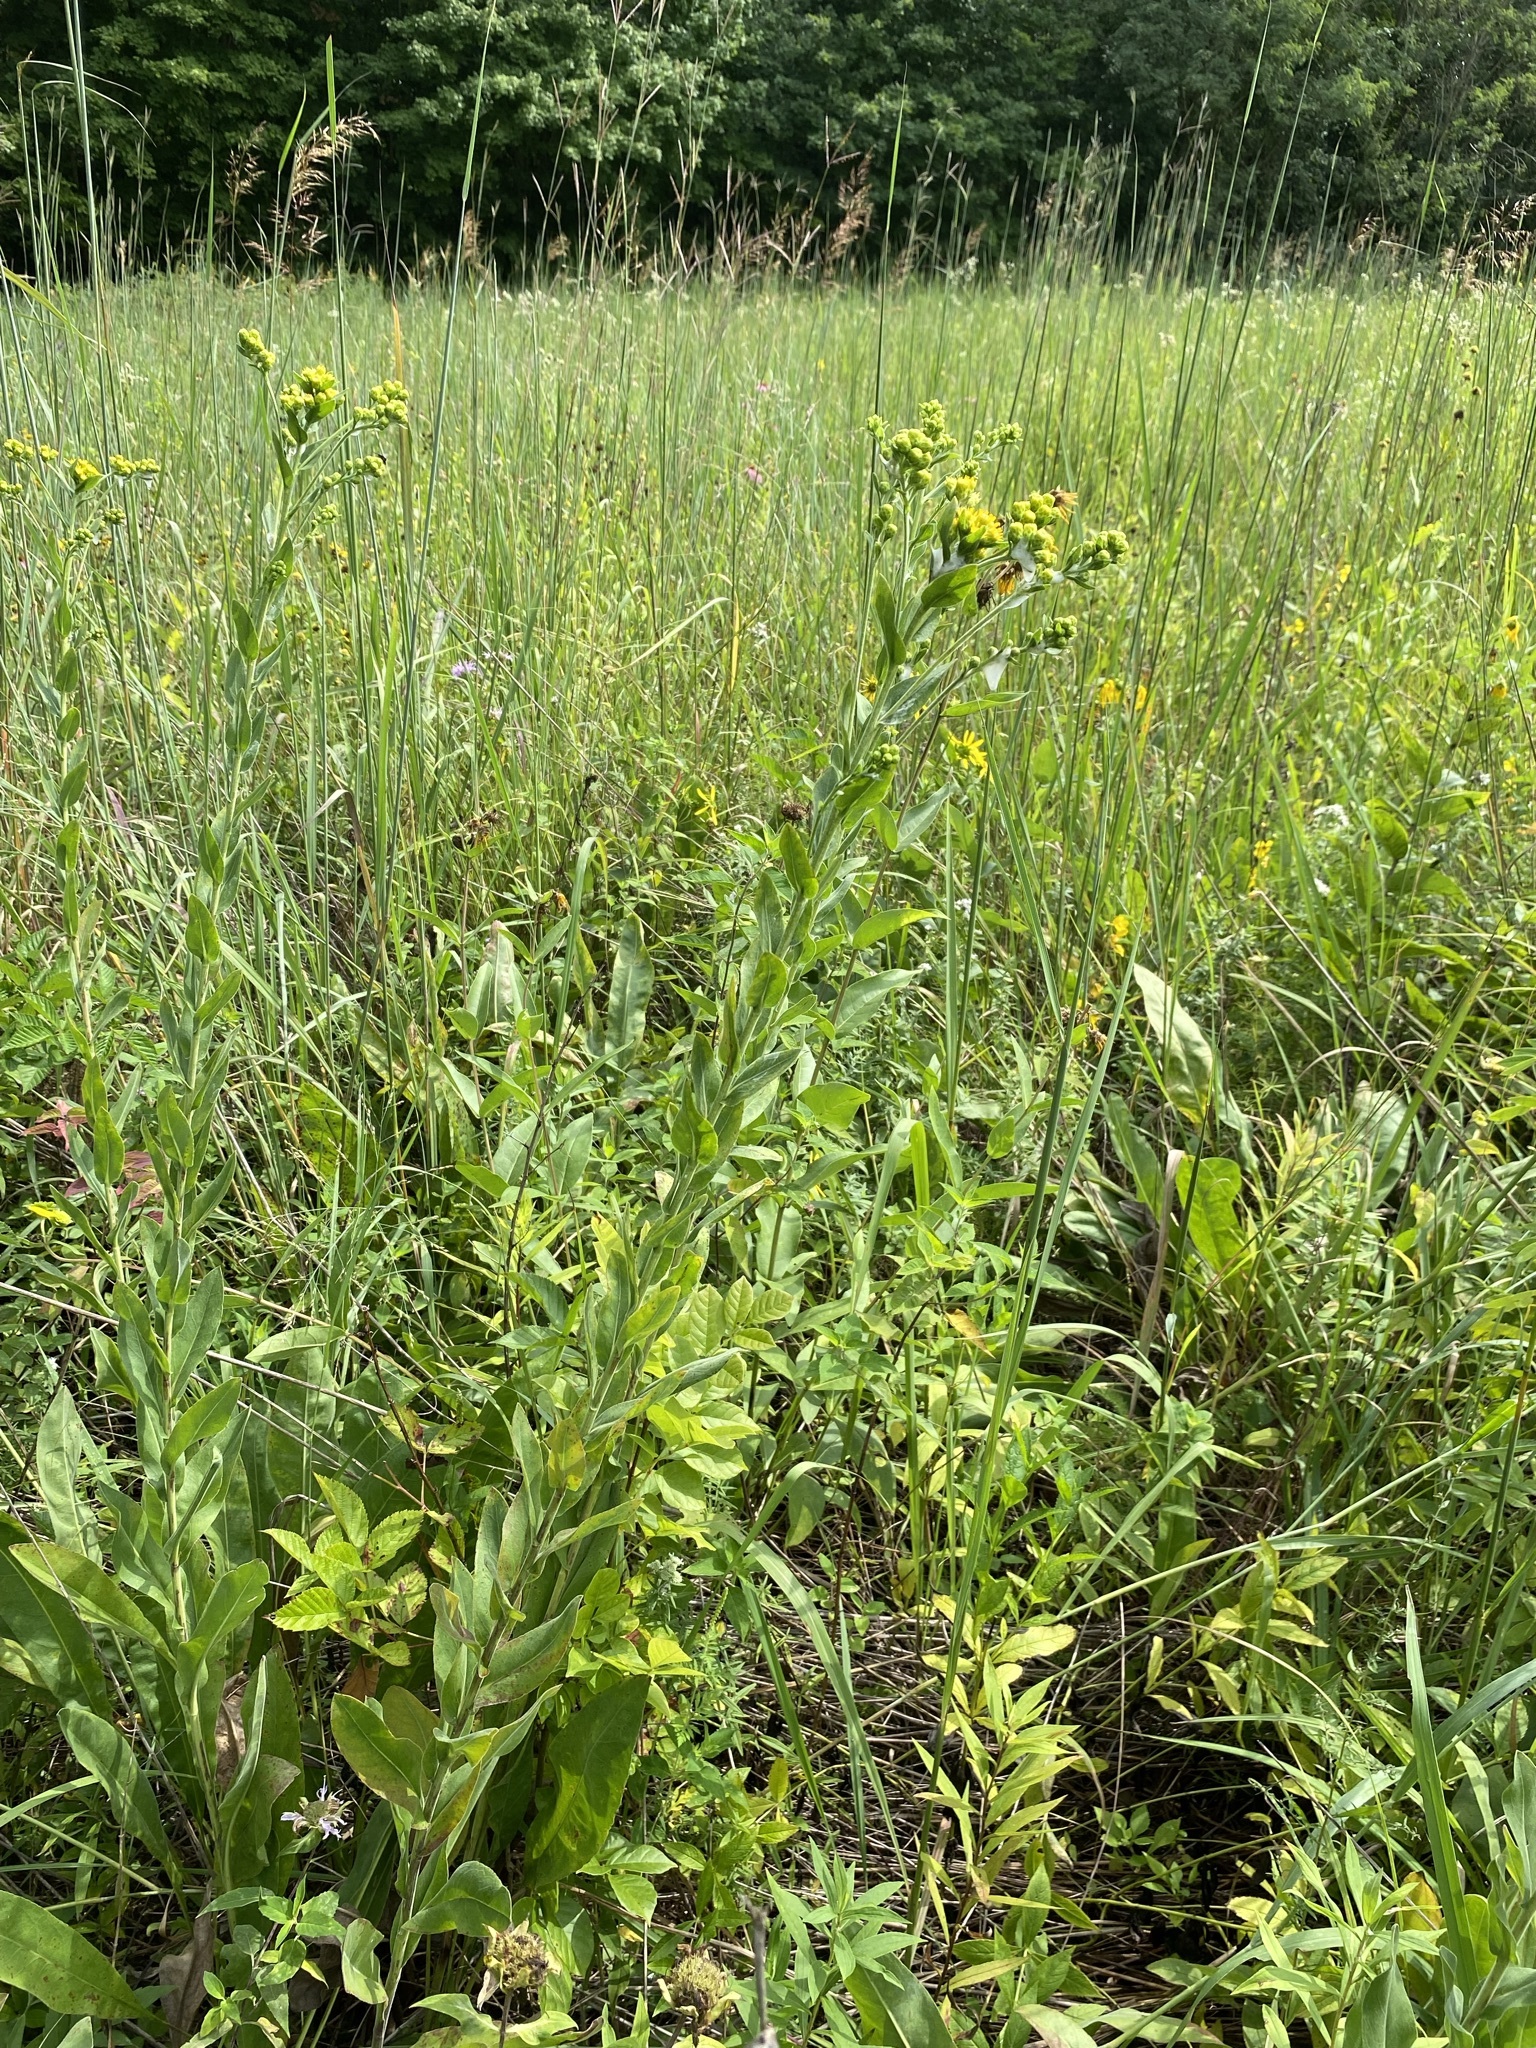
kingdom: Plantae
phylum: Tracheophyta
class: Magnoliopsida
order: Asterales
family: Asteraceae
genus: Solidago
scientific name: Solidago rigida
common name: Rigid goldenrod
